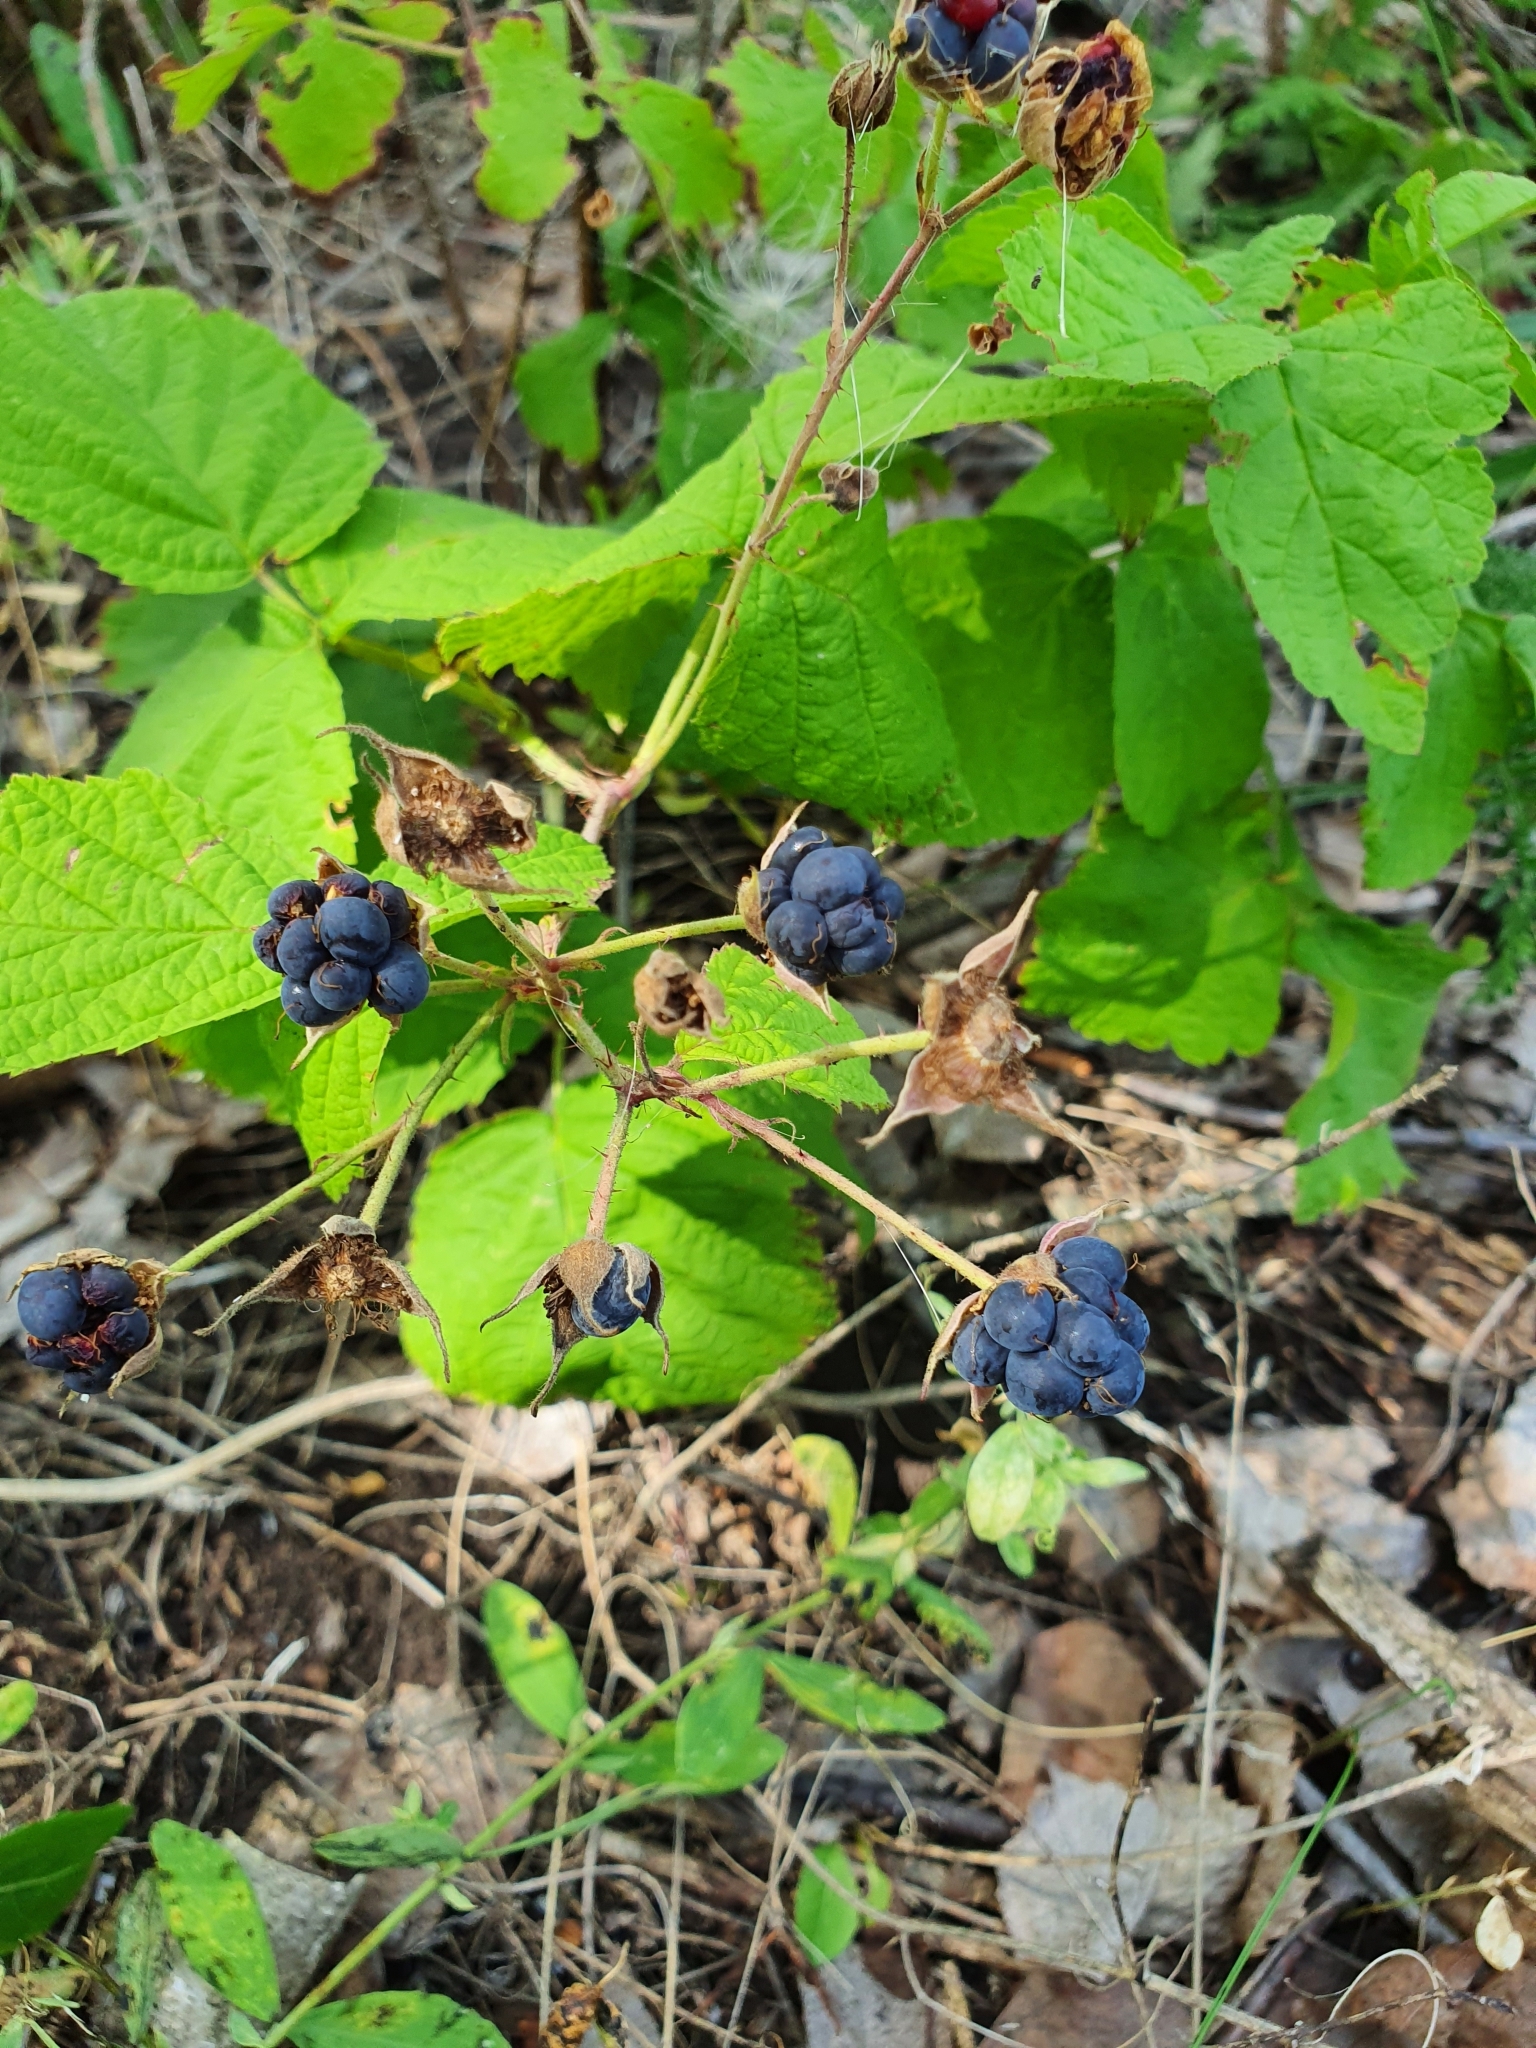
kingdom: Plantae
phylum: Tracheophyta
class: Magnoliopsida
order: Rosales
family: Rosaceae
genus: Rubus
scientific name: Rubus caesius
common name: Dewberry
